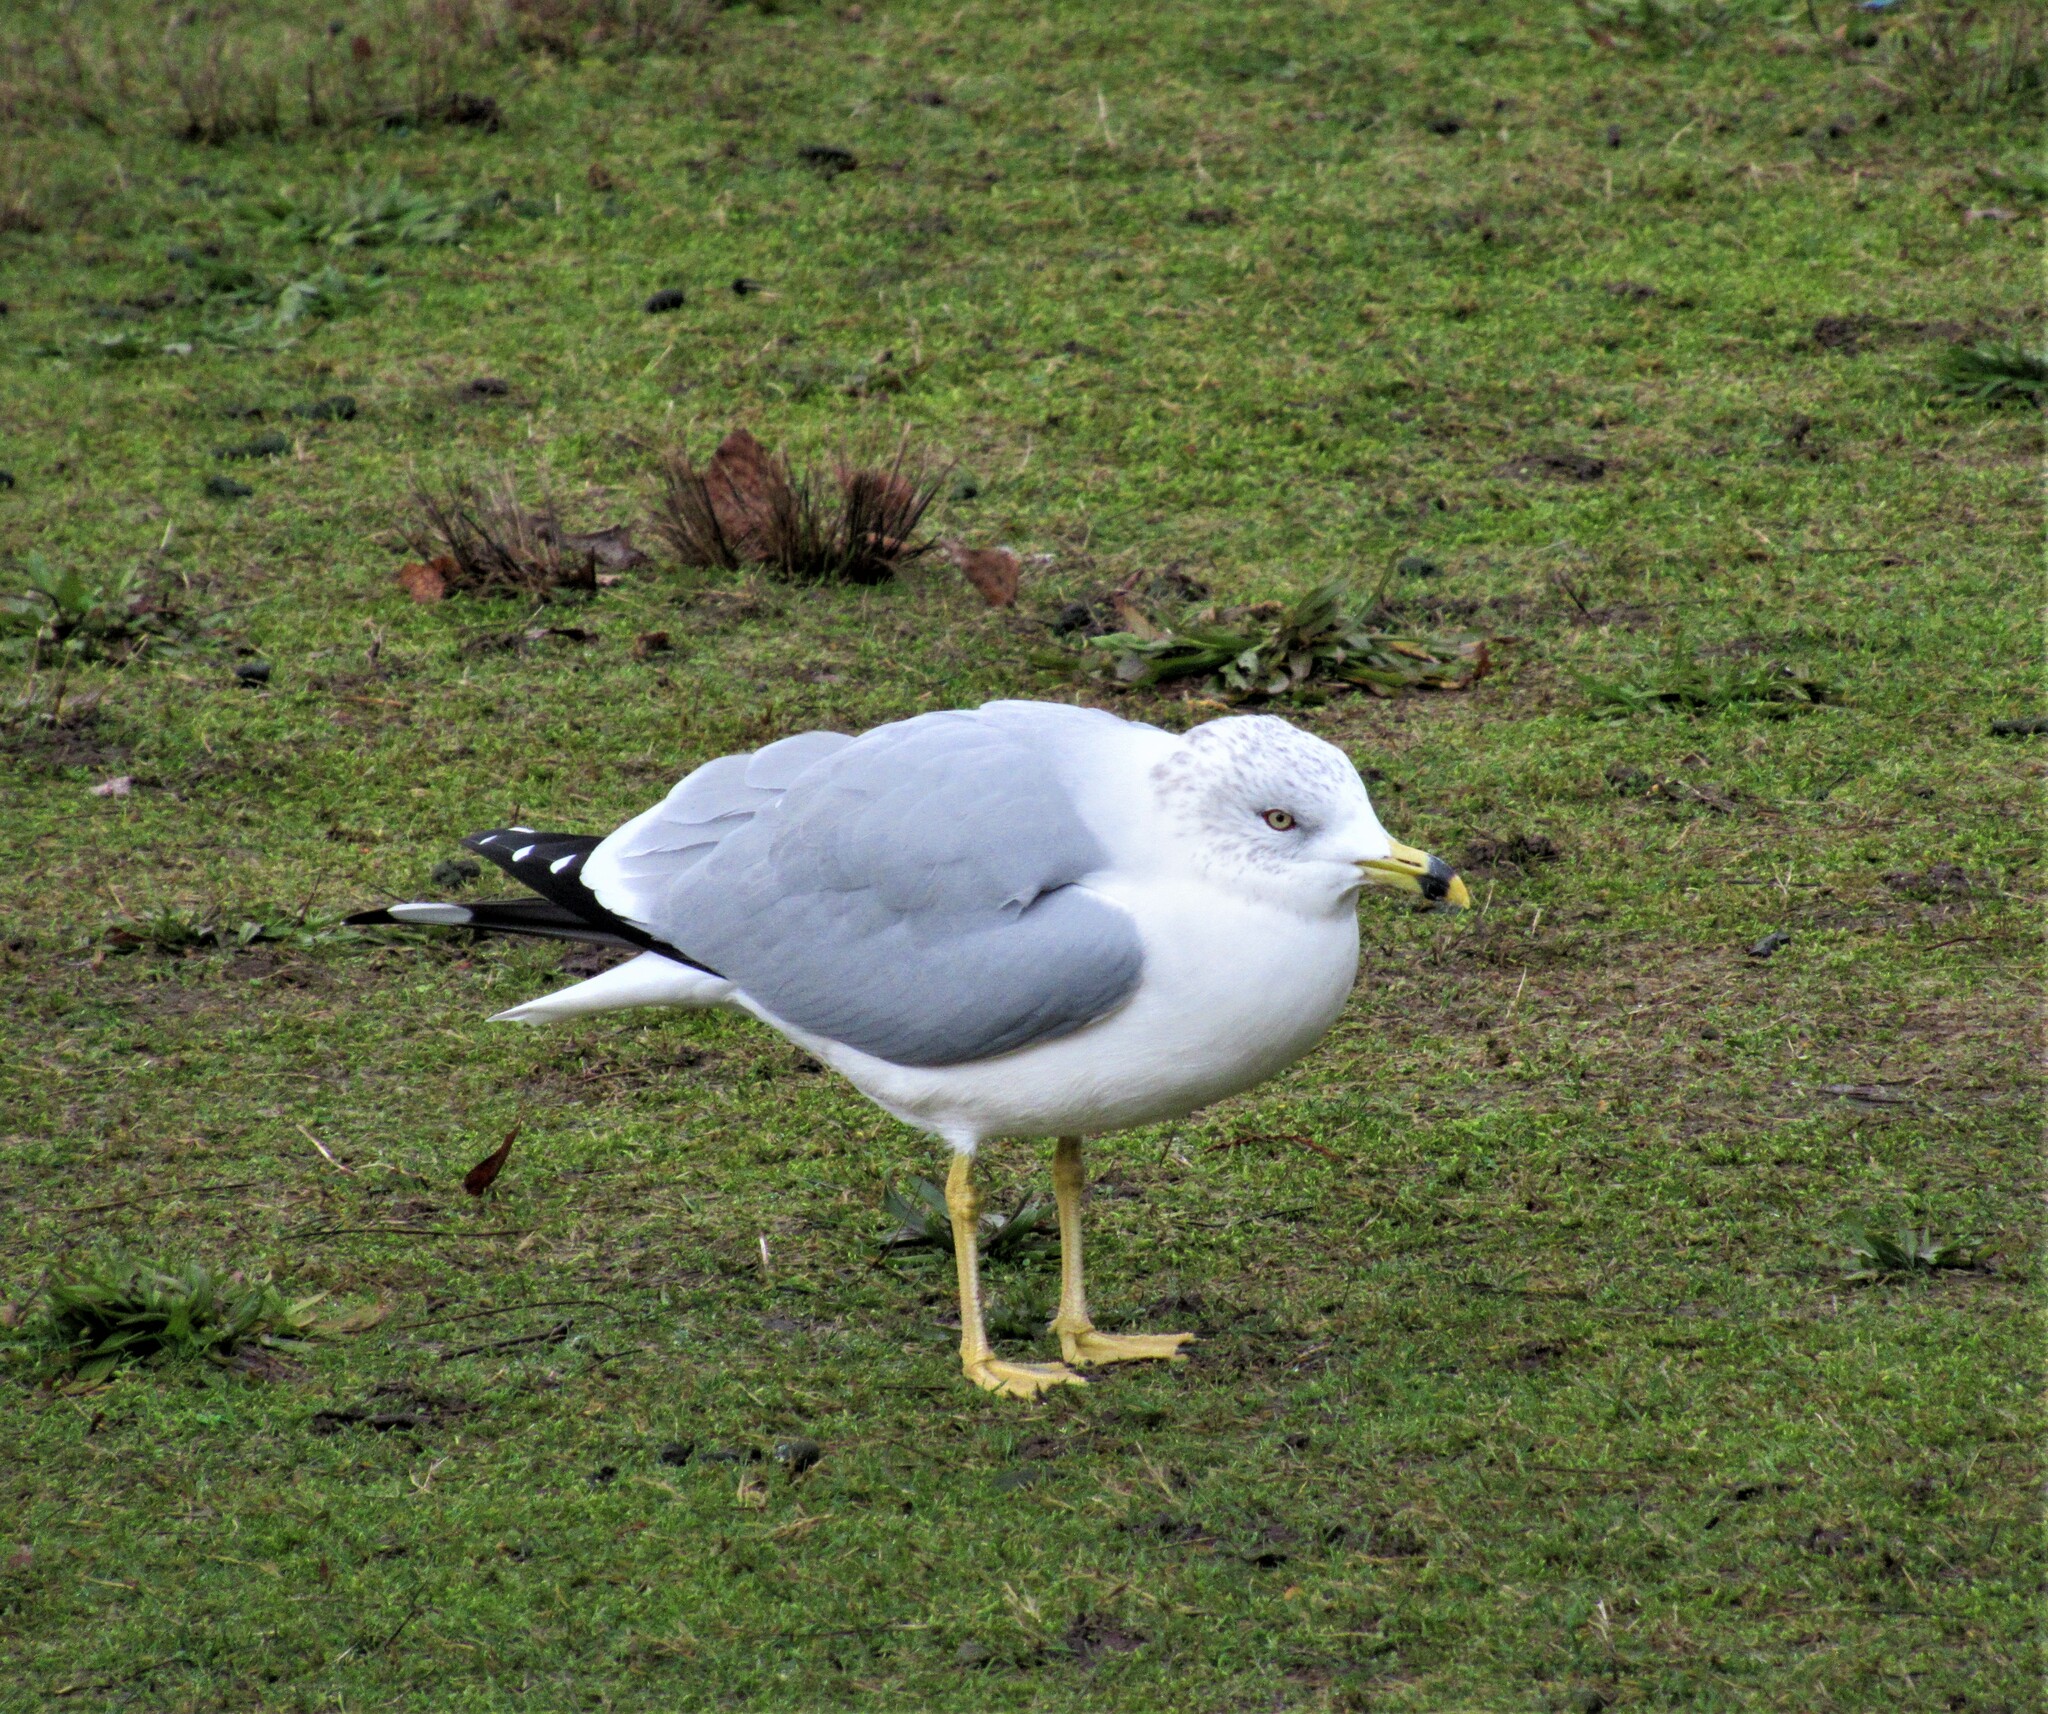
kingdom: Animalia
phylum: Chordata
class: Aves
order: Charadriiformes
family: Laridae
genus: Larus
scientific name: Larus delawarensis
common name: Ring-billed gull
